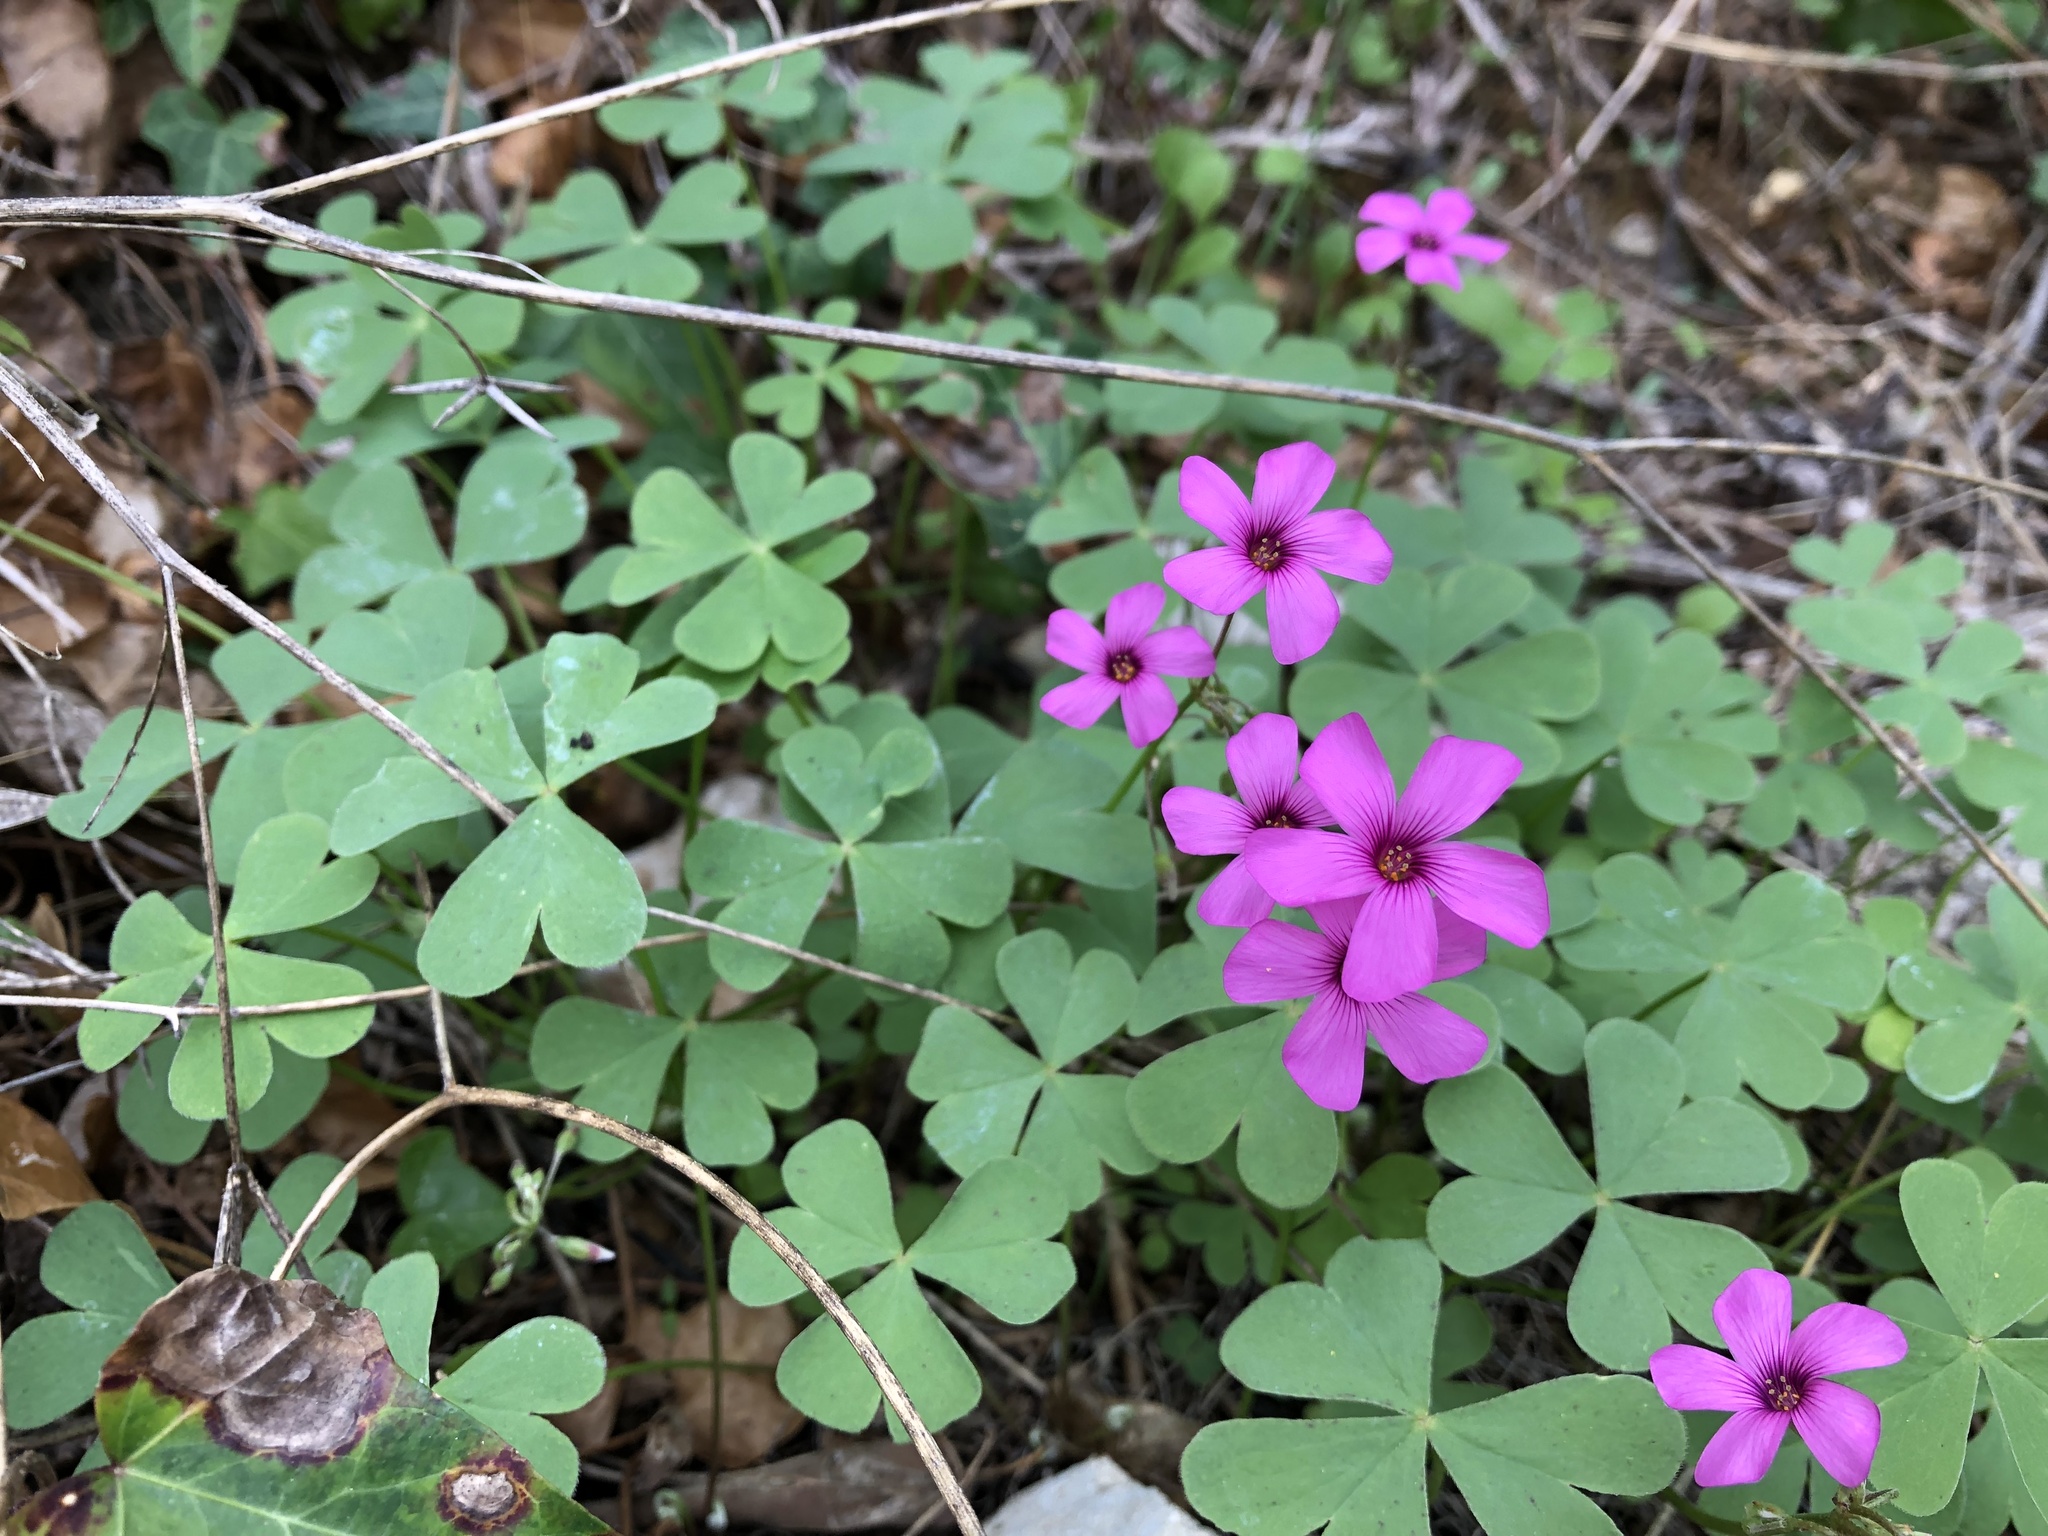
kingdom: Plantae
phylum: Tracheophyta
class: Magnoliopsida
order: Oxalidales
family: Oxalidaceae
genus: Oxalis
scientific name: Oxalis articulata
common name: Pink-sorrel
